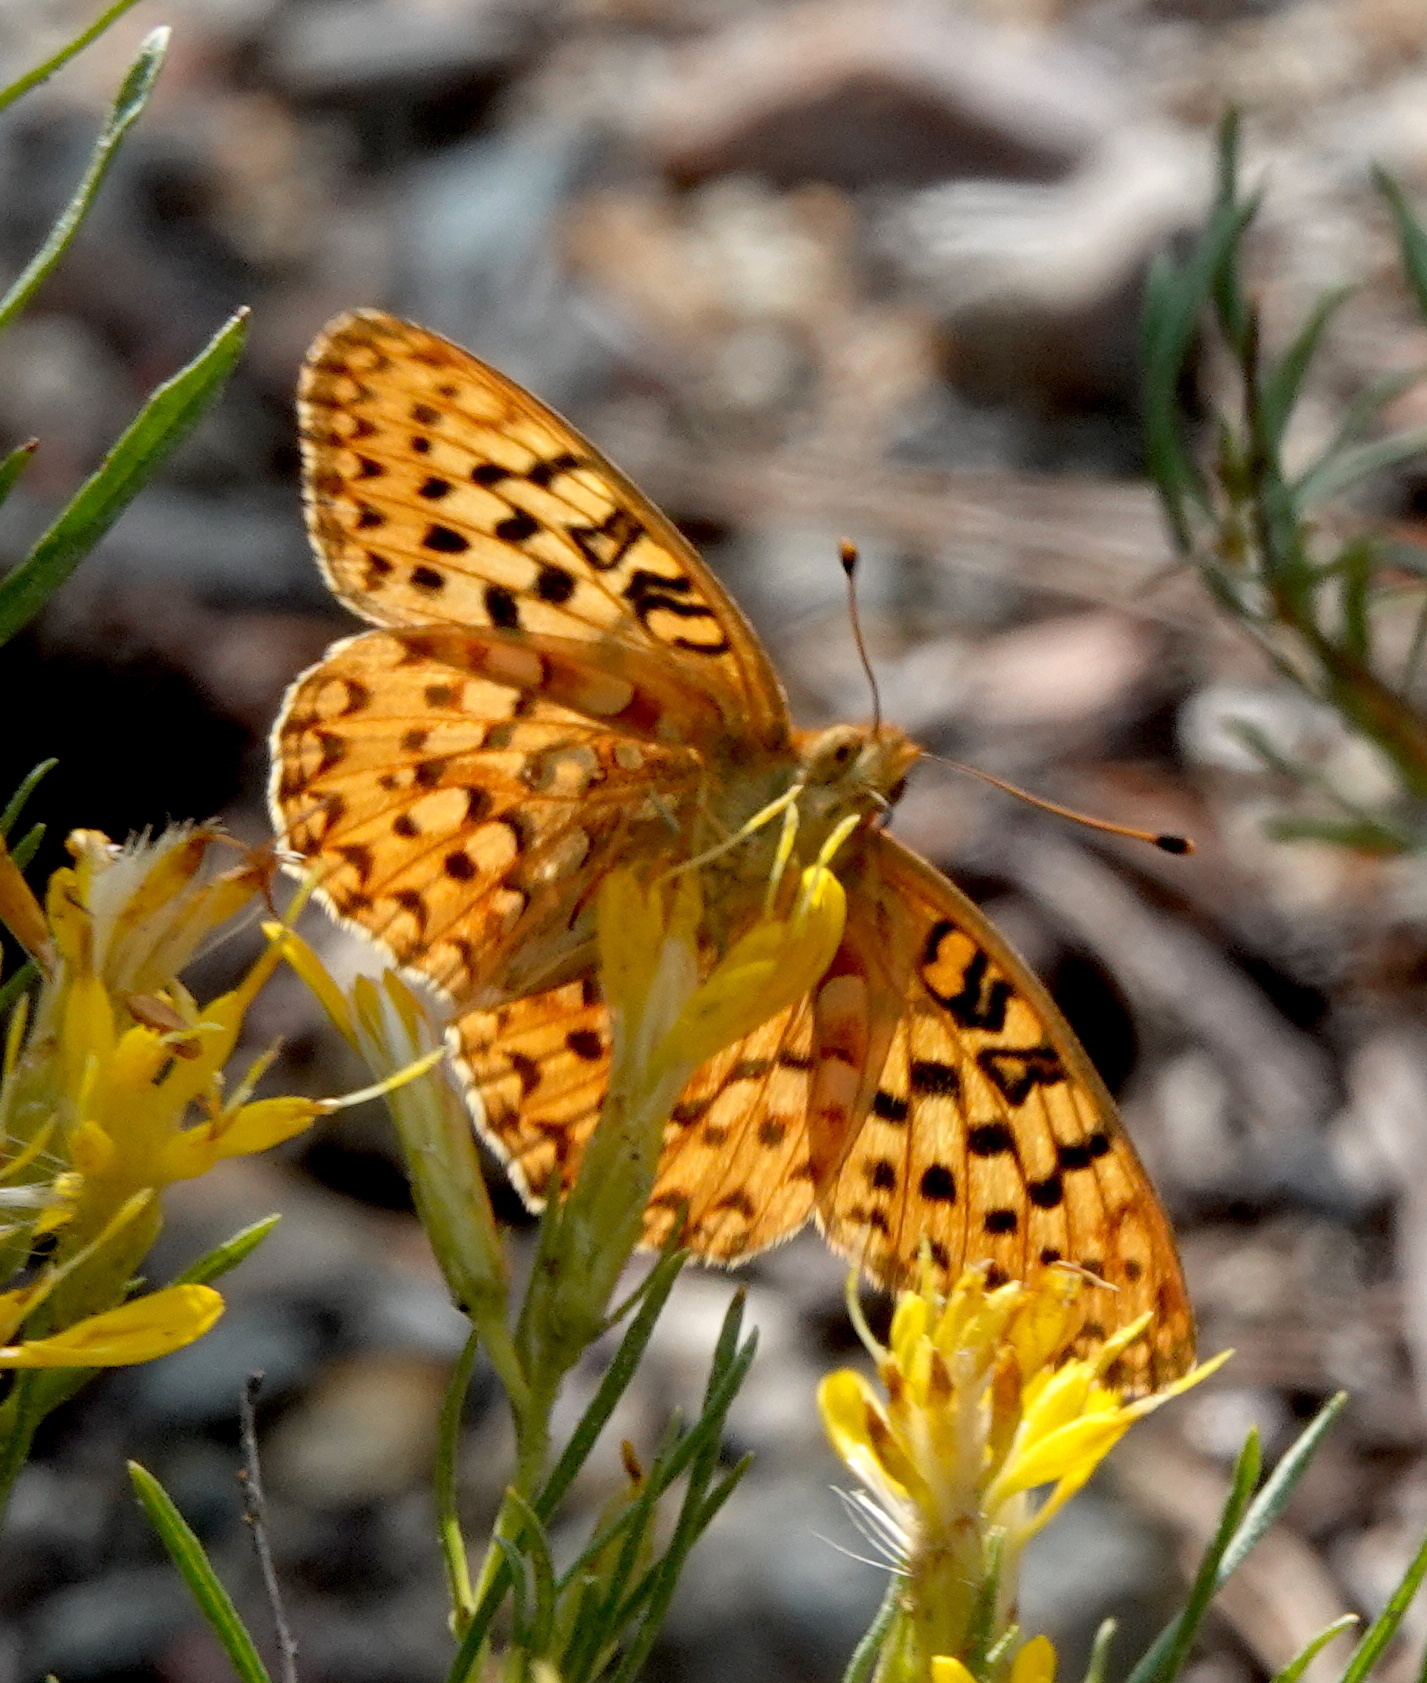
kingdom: Animalia
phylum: Arthropoda
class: Insecta
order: Lepidoptera
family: Nymphalidae
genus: Speyeria
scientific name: Speyeria mormonia
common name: Mormon fritillary
